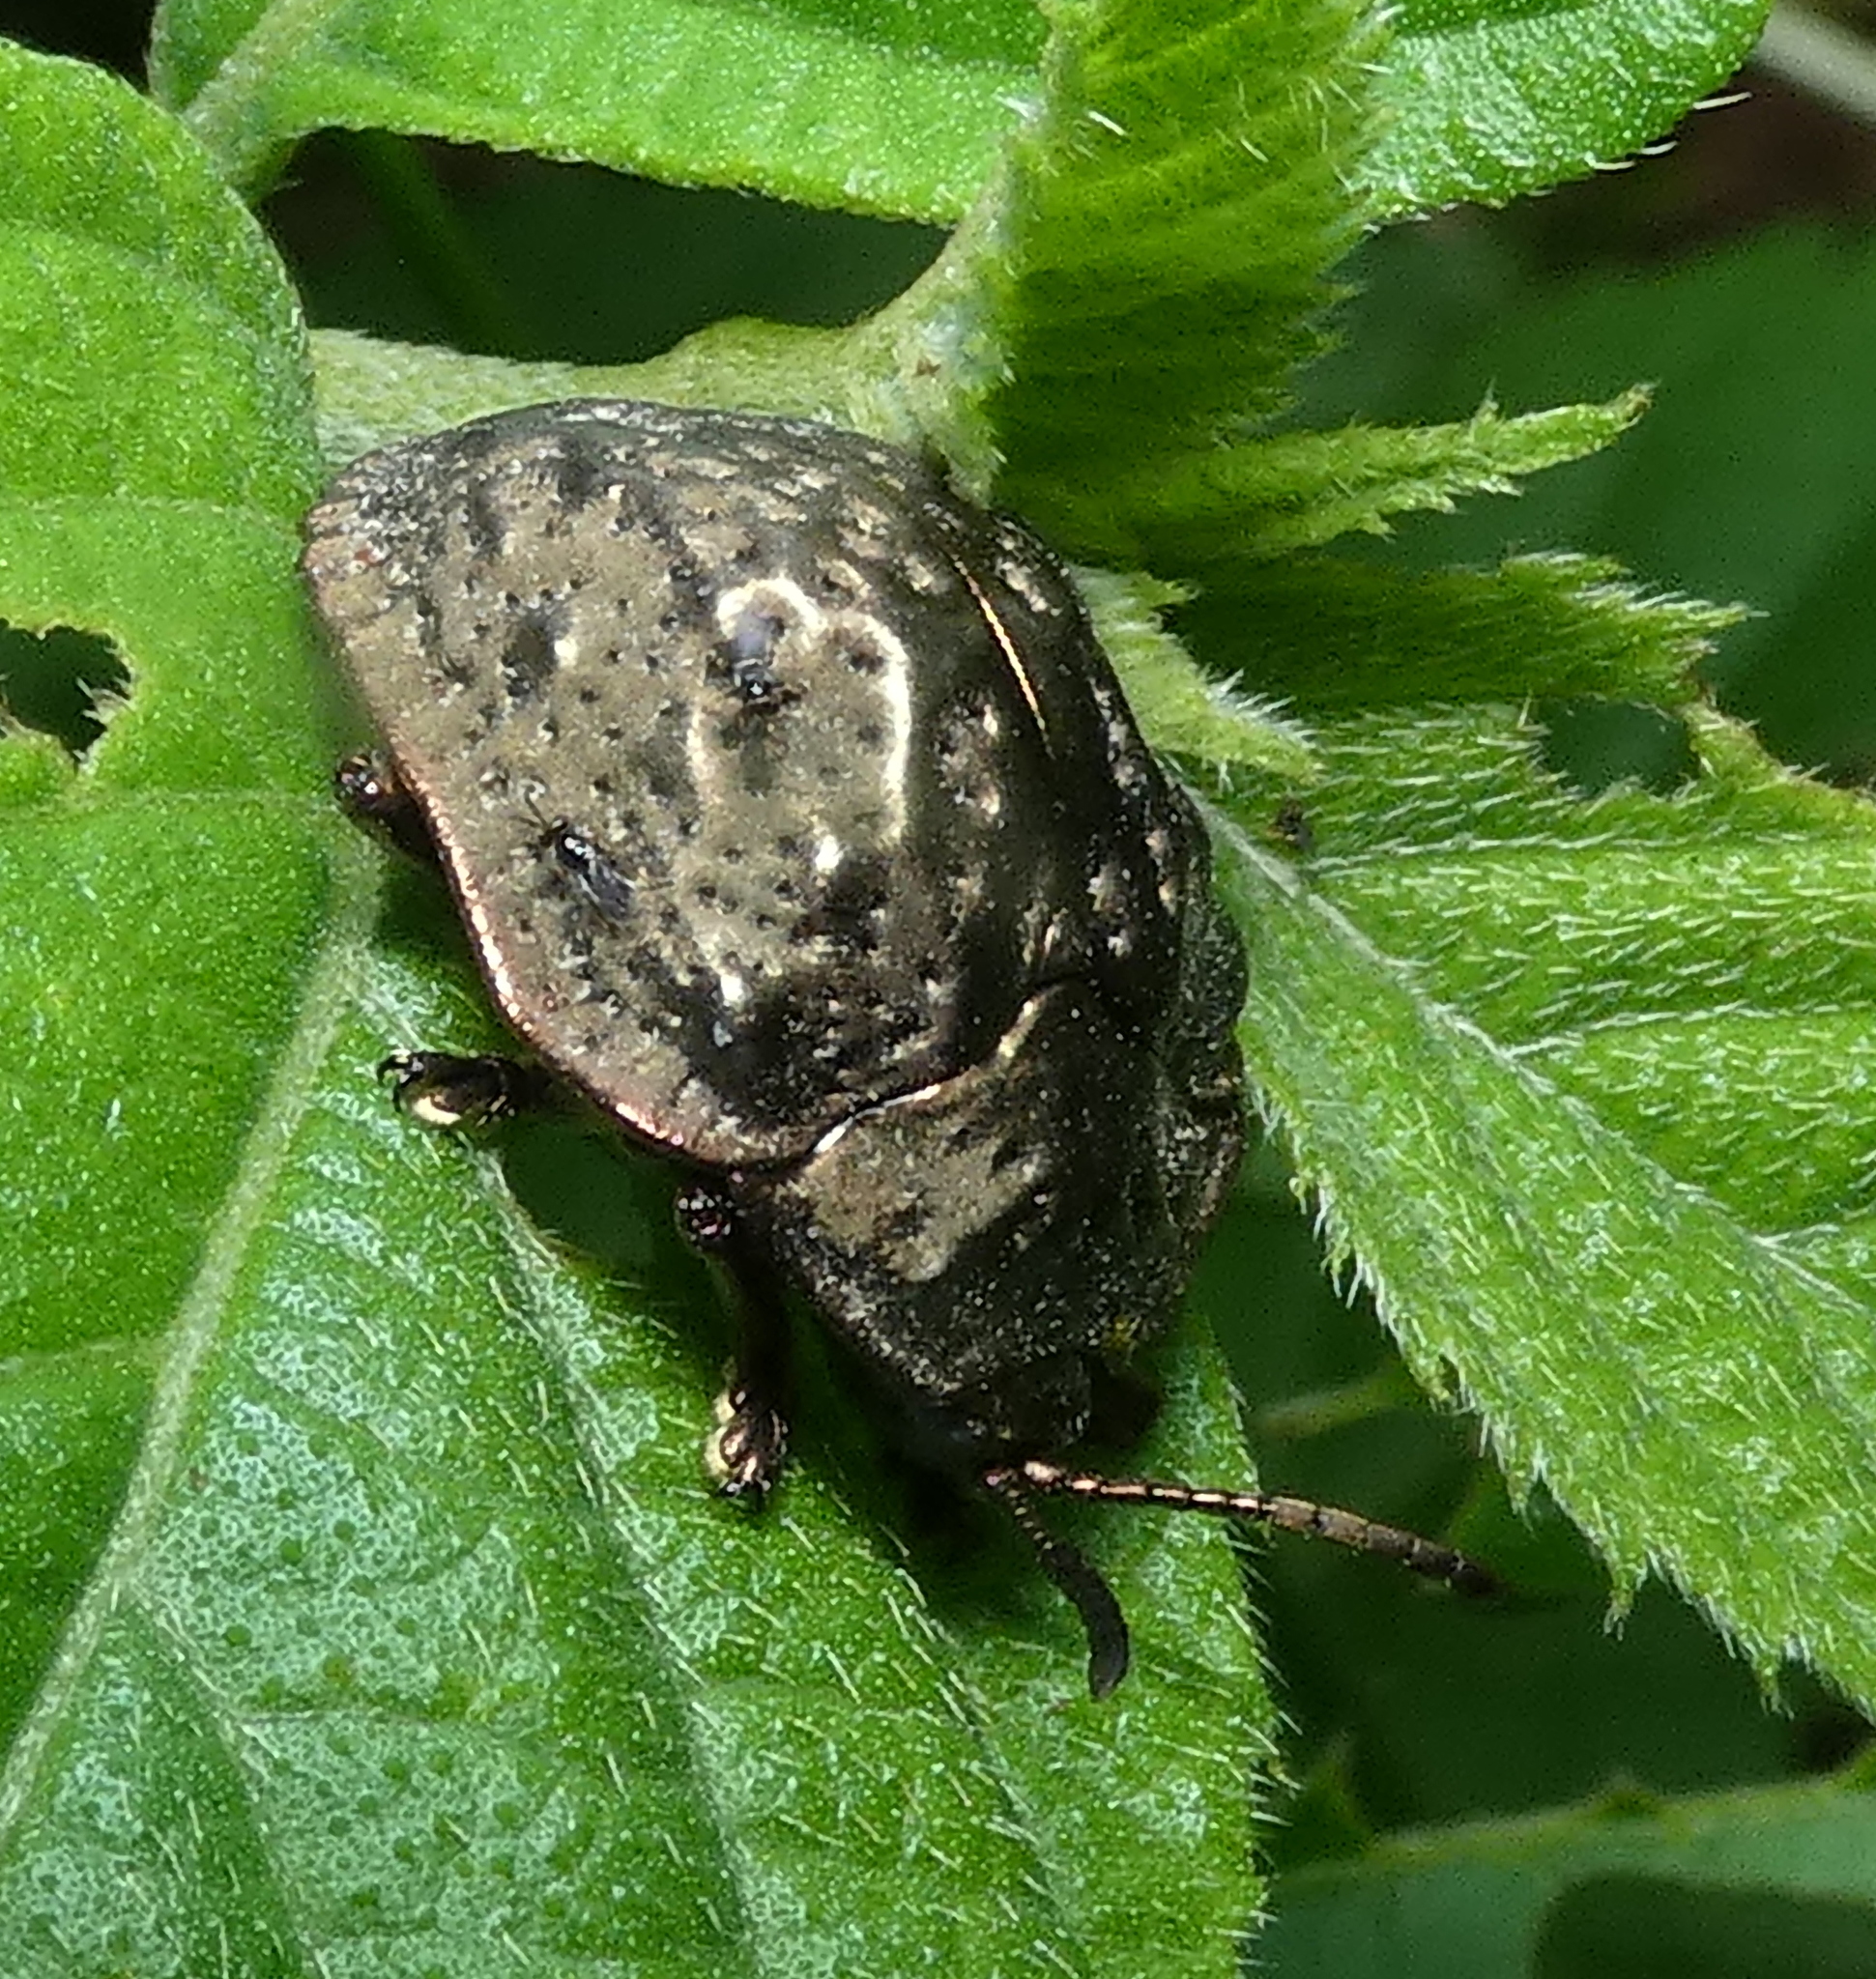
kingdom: Animalia
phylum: Arthropoda
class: Insecta
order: Coleoptera
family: Chrysomelidae
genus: Polychalca
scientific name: Polychalca aerea
